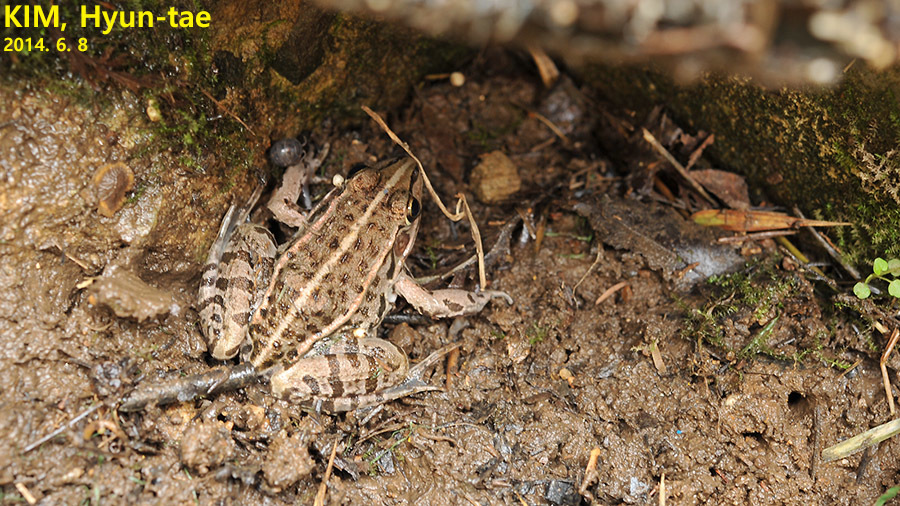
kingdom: Animalia
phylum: Chordata
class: Amphibia
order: Anura
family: Ranidae
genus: Pelophylax
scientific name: Pelophylax nigromaculatus
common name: Black-spotted pond frog
